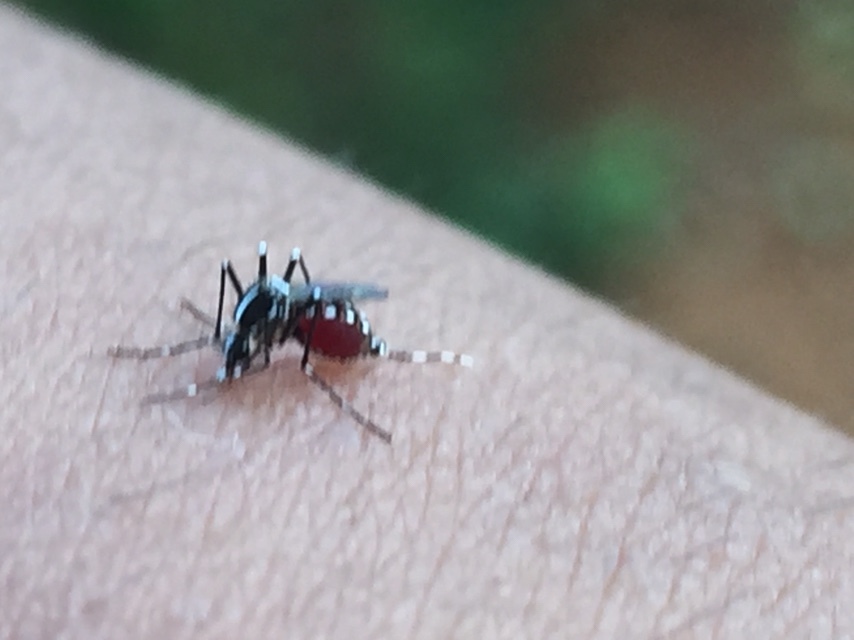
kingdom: Animalia
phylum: Arthropoda
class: Insecta
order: Diptera
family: Culicidae
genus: Aedes
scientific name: Aedes albopictus
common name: Tiger mosquito
